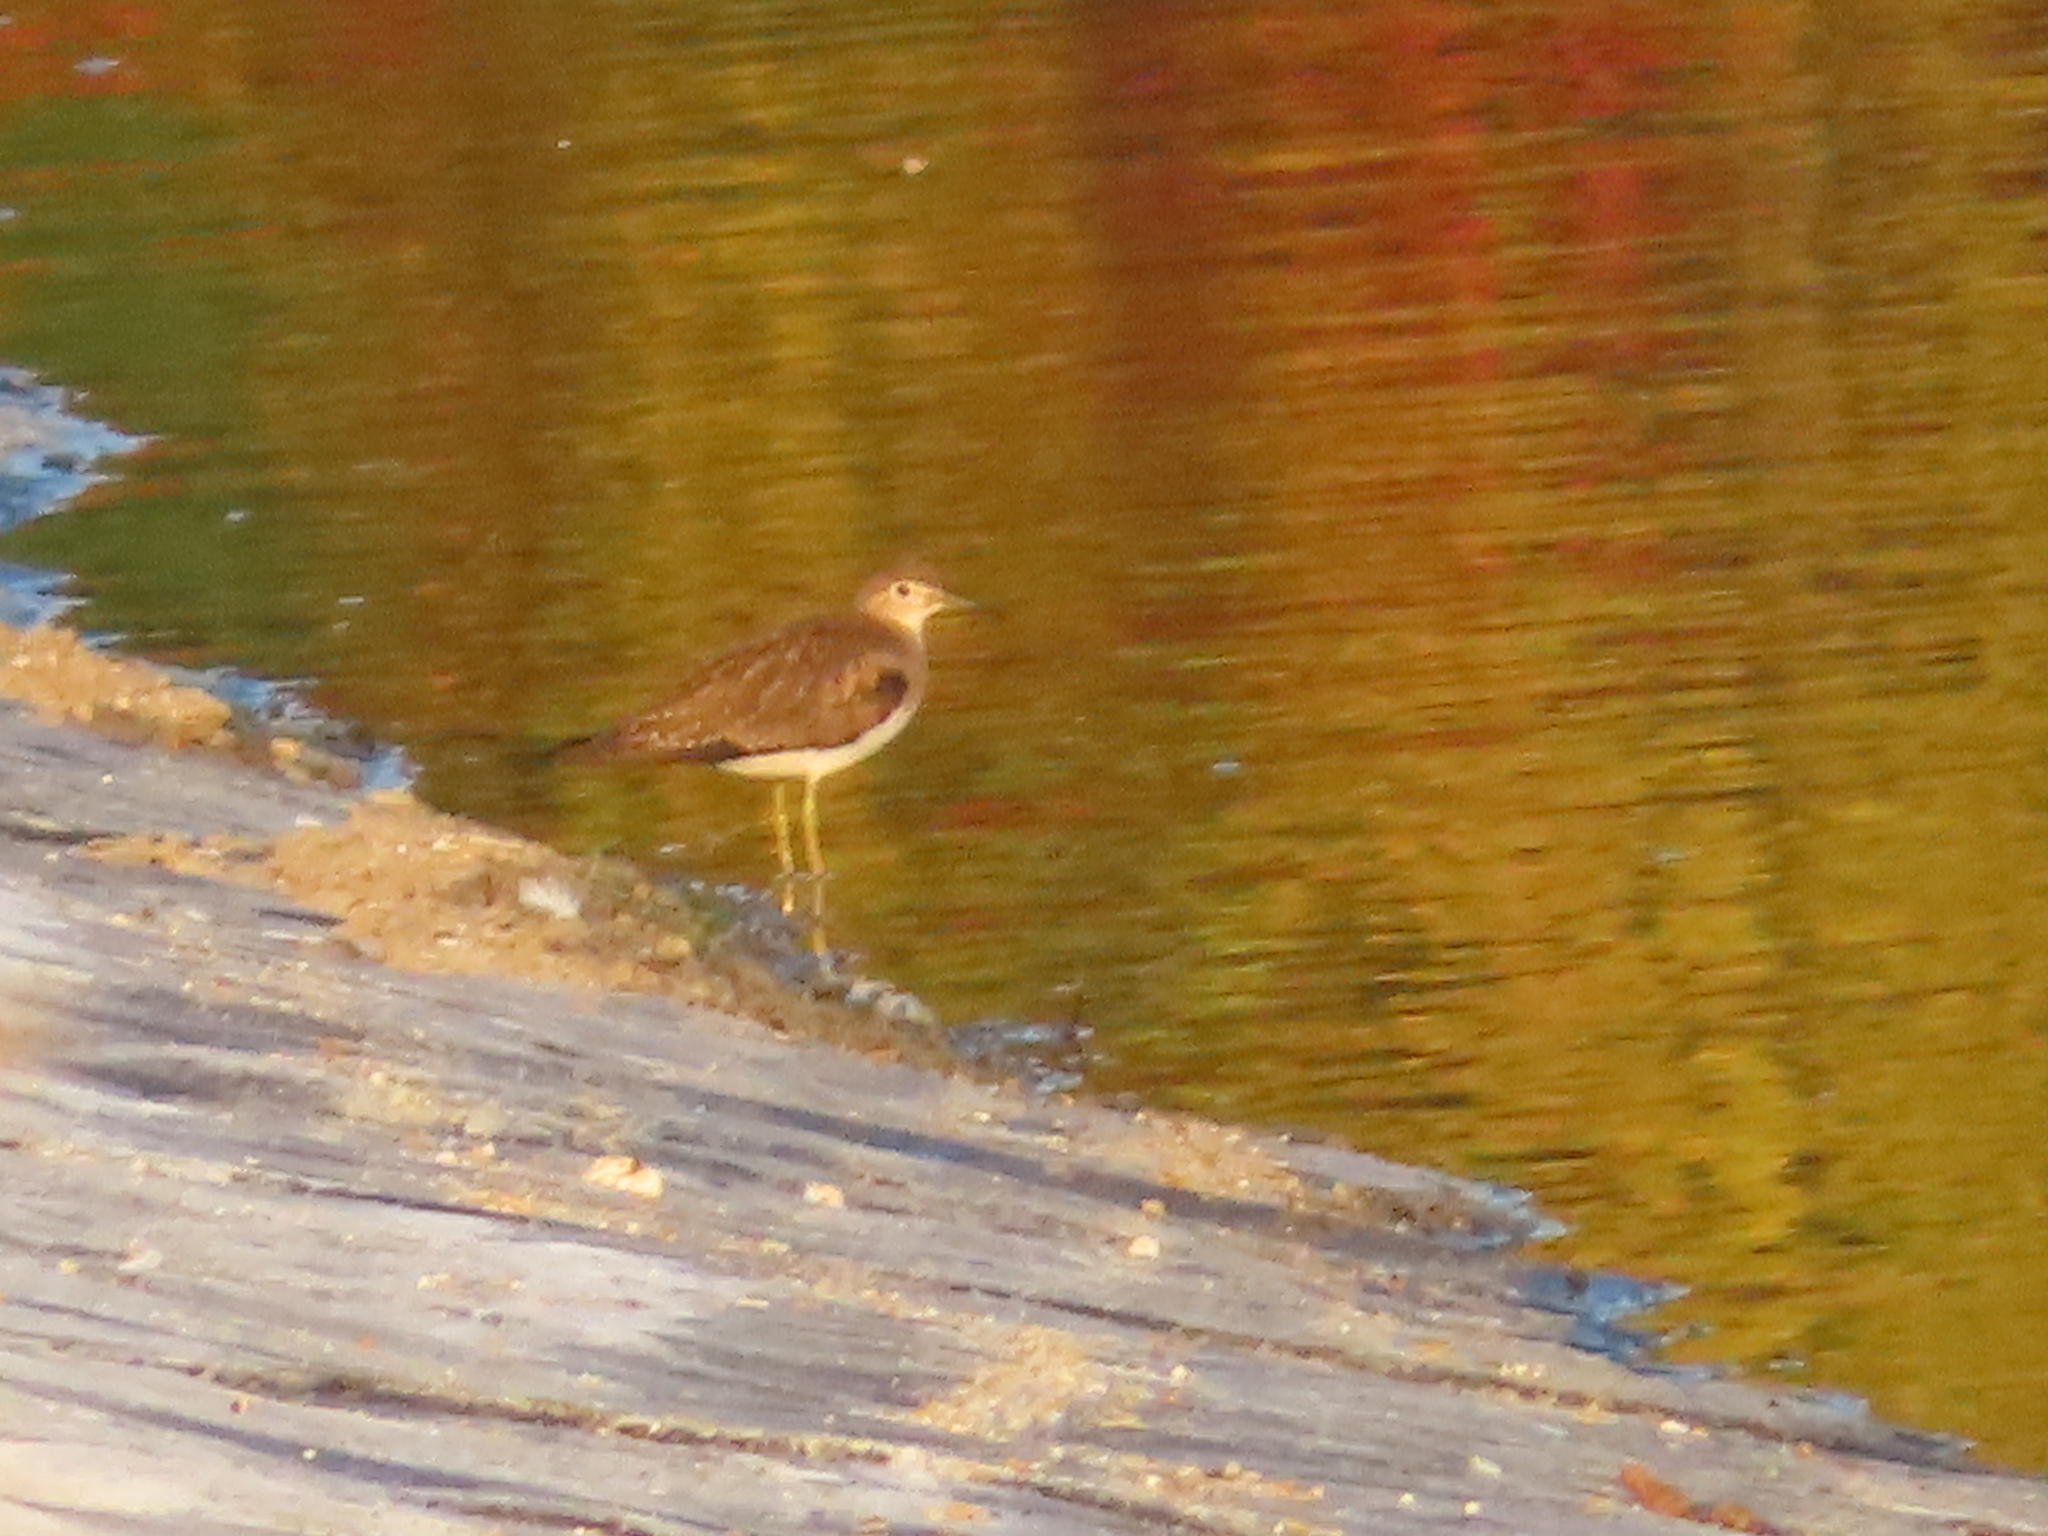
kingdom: Animalia
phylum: Chordata
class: Aves
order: Charadriiformes
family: Scolopacidae
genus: Tringa
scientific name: Tringa solitaria
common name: Solitary sandpiper
